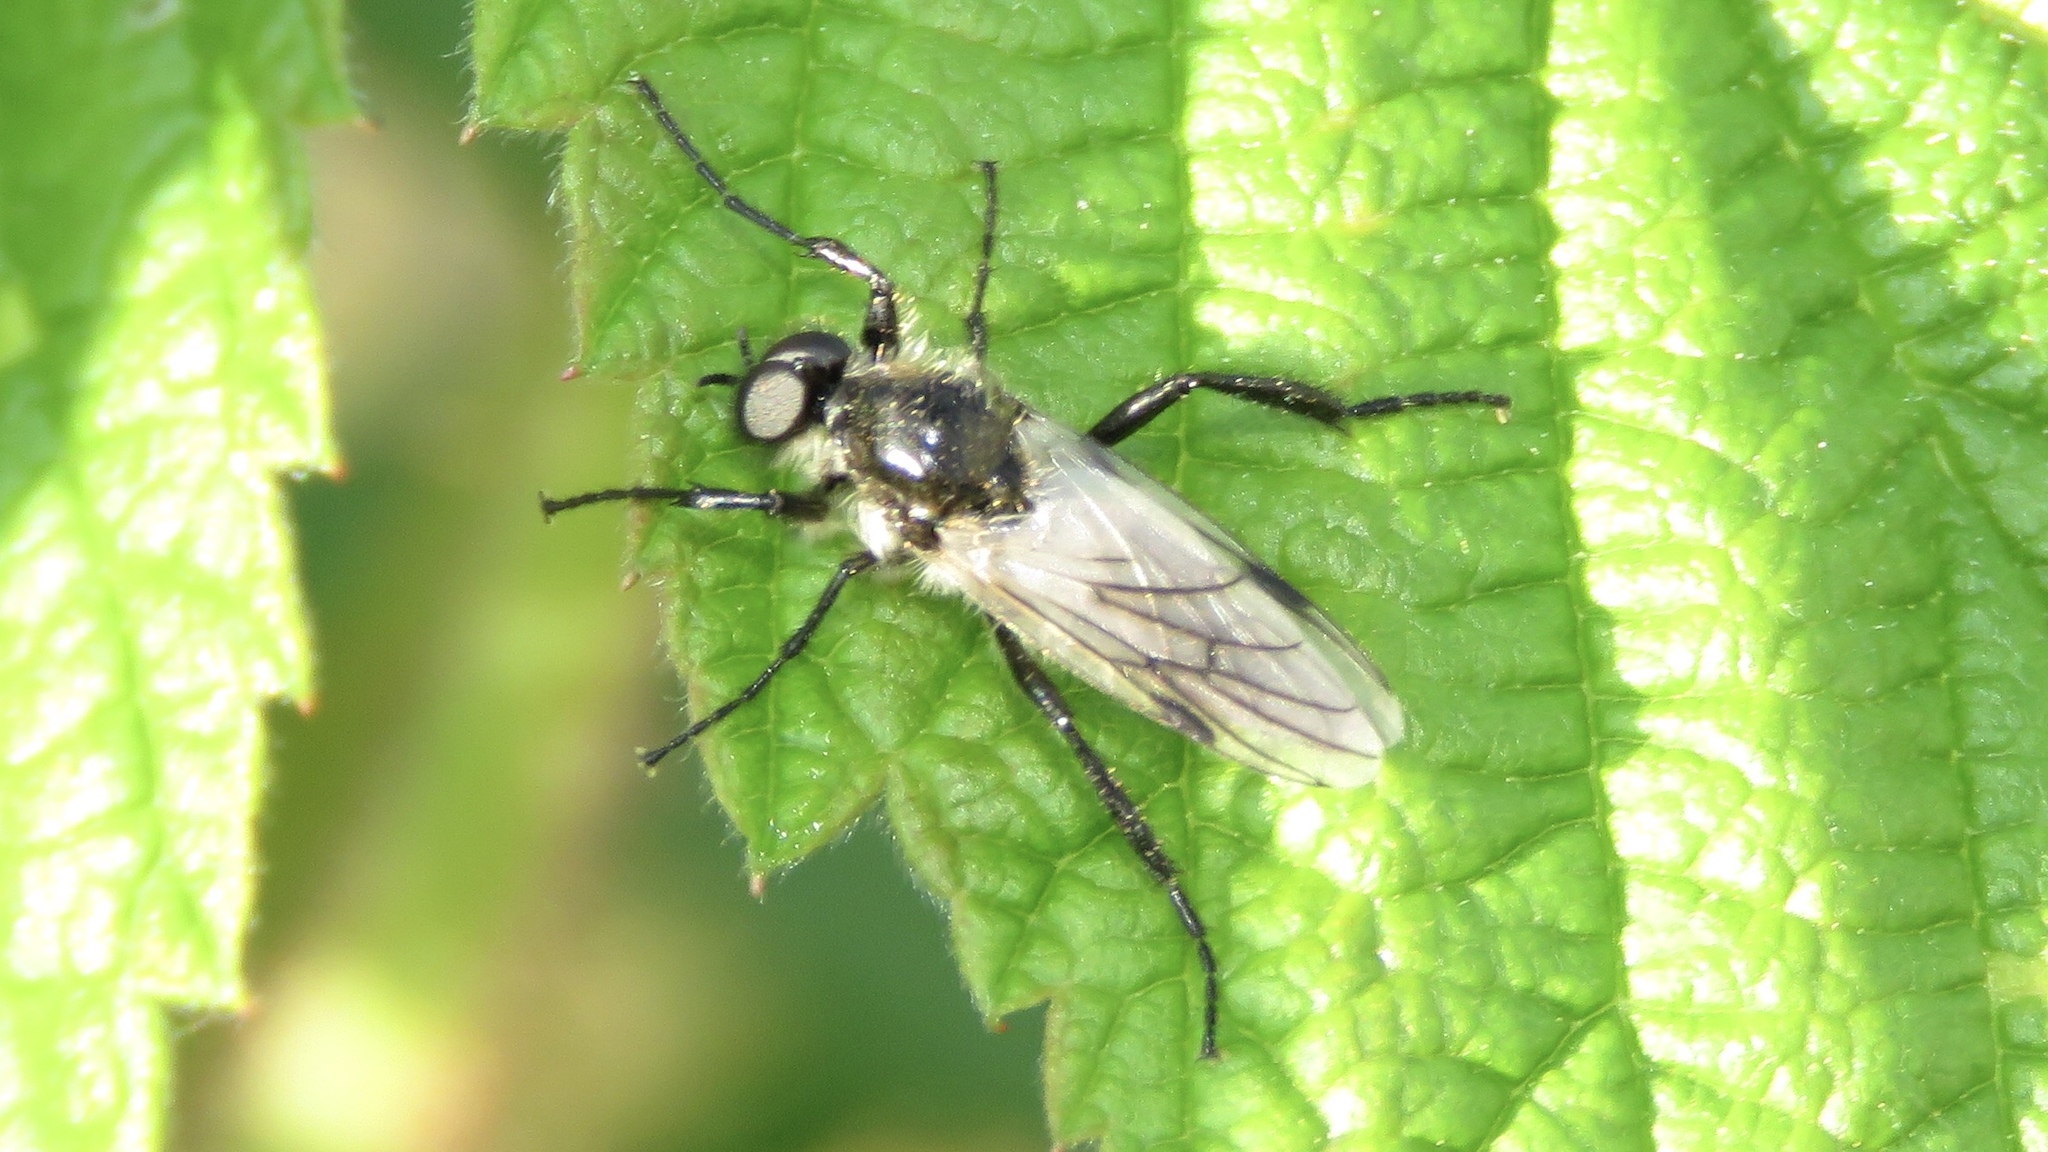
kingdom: Animalia
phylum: Arthropoda
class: Insecta
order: Diptera
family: Bibionidae
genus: Bibio
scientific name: Bibio albipennis
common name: White-winged march fly
